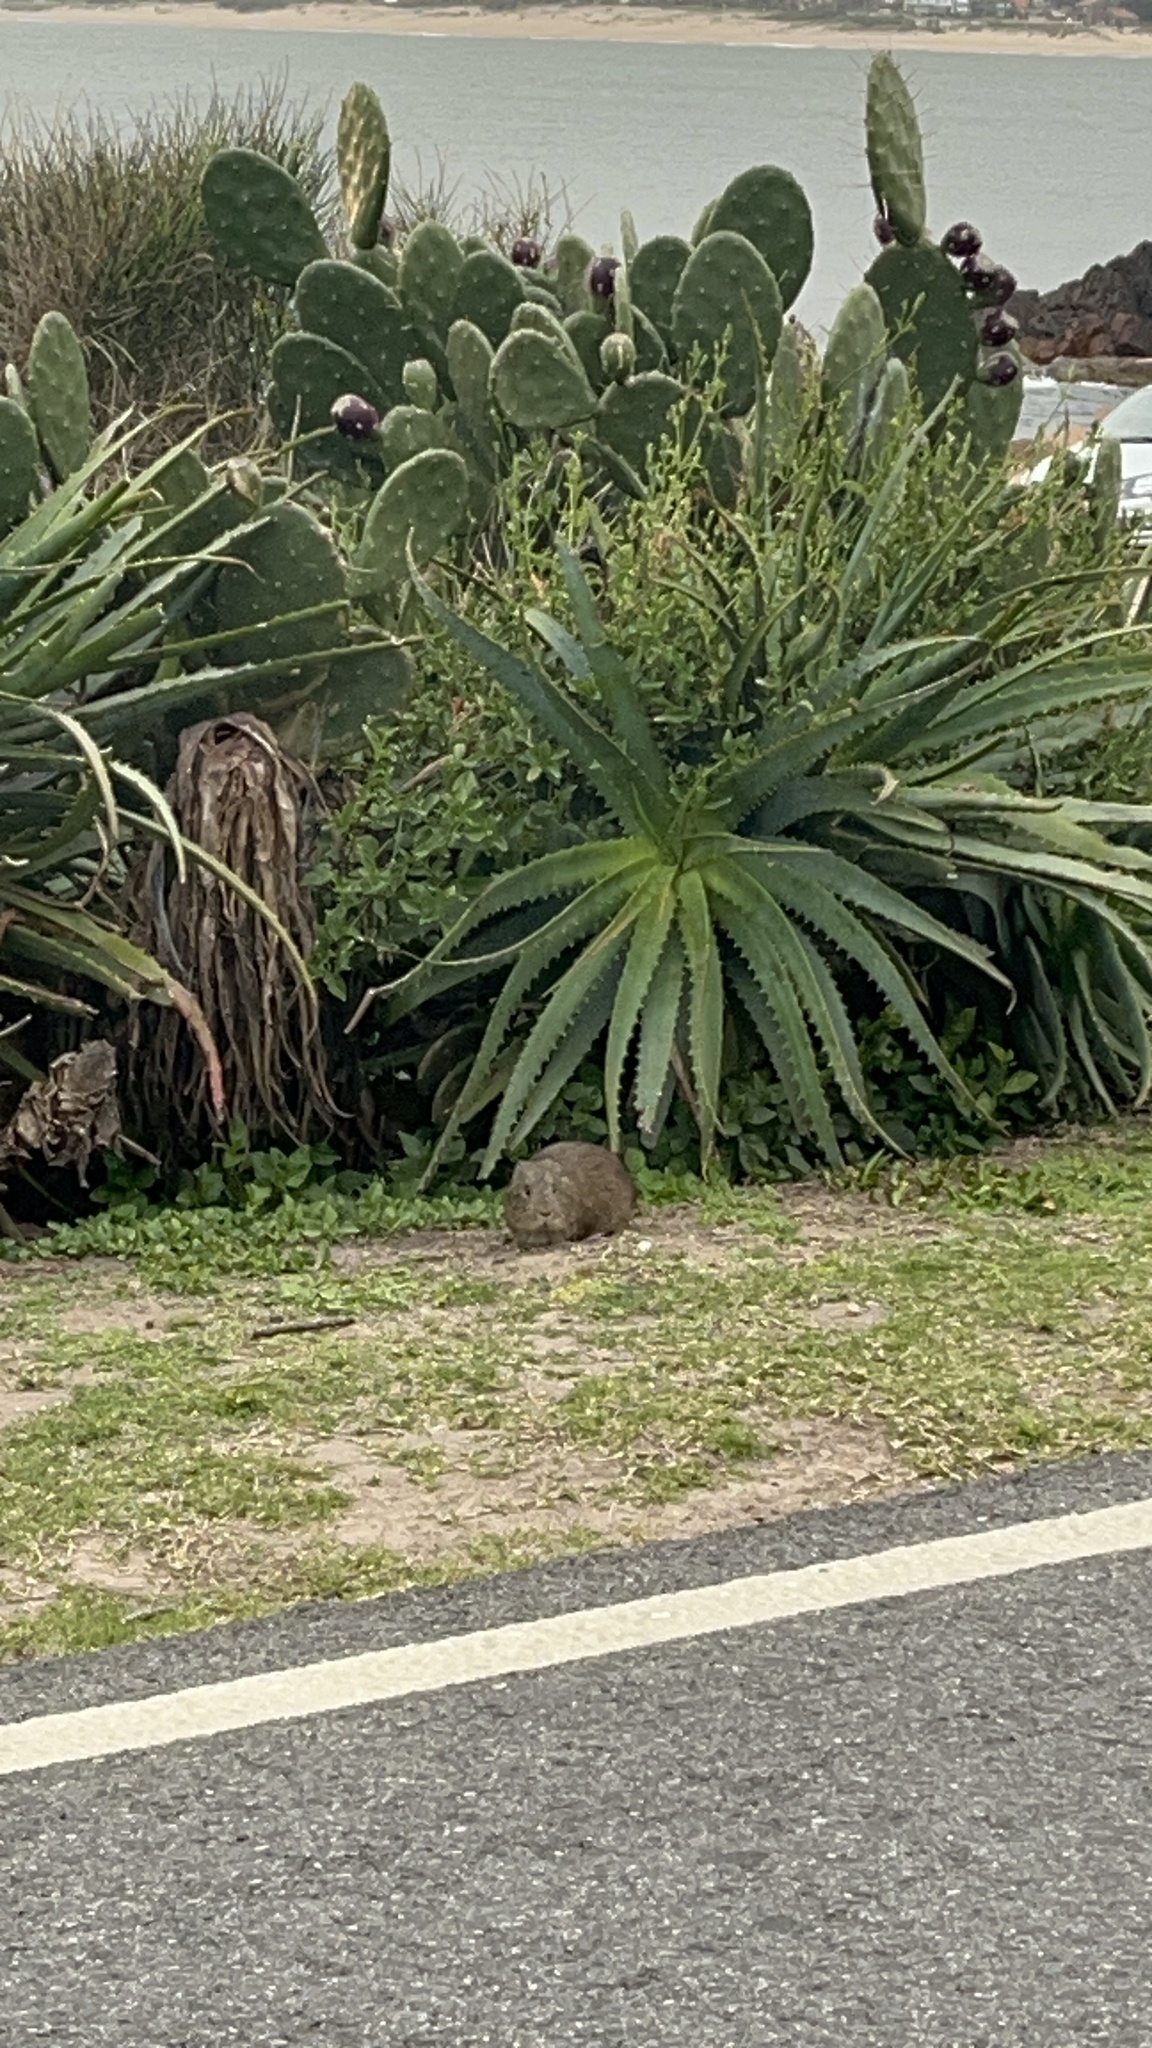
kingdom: Animalia
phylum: Chordata
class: Mammalia
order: Rodentia
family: Caviidae
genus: Cavia
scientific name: Cavia aperea
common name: Brazilian guinea pig
